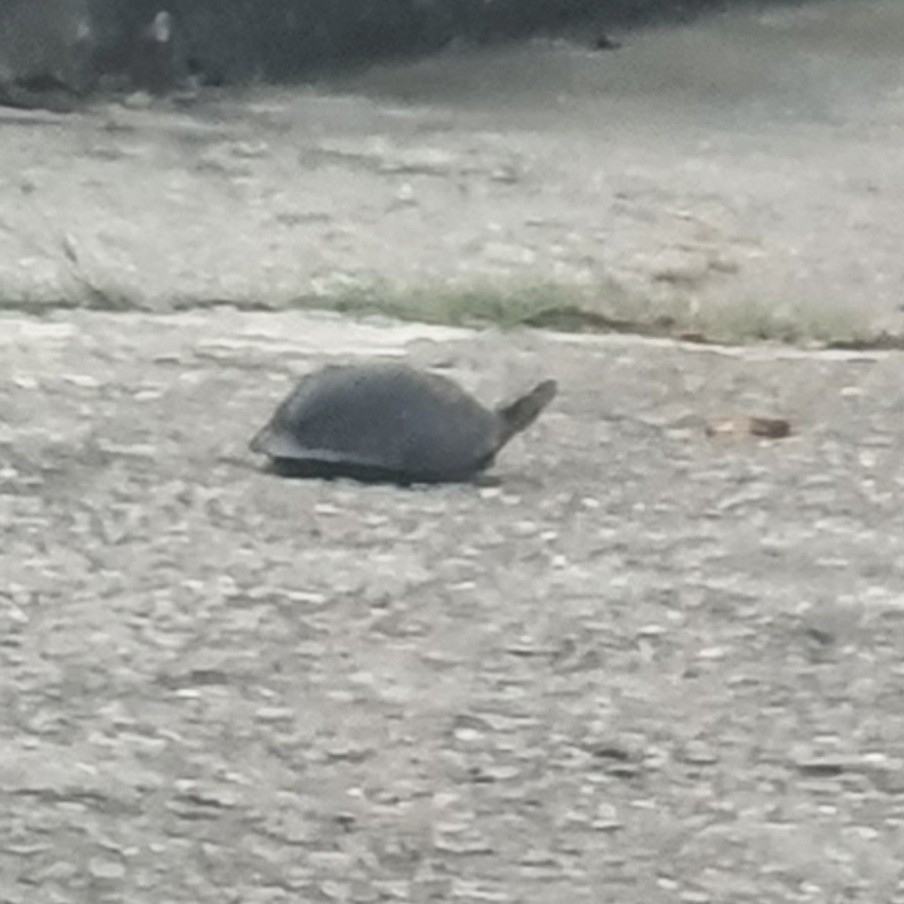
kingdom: Animalia
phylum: Chordata
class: Testudines
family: Geoemydidae
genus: Cuora
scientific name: Cuora
